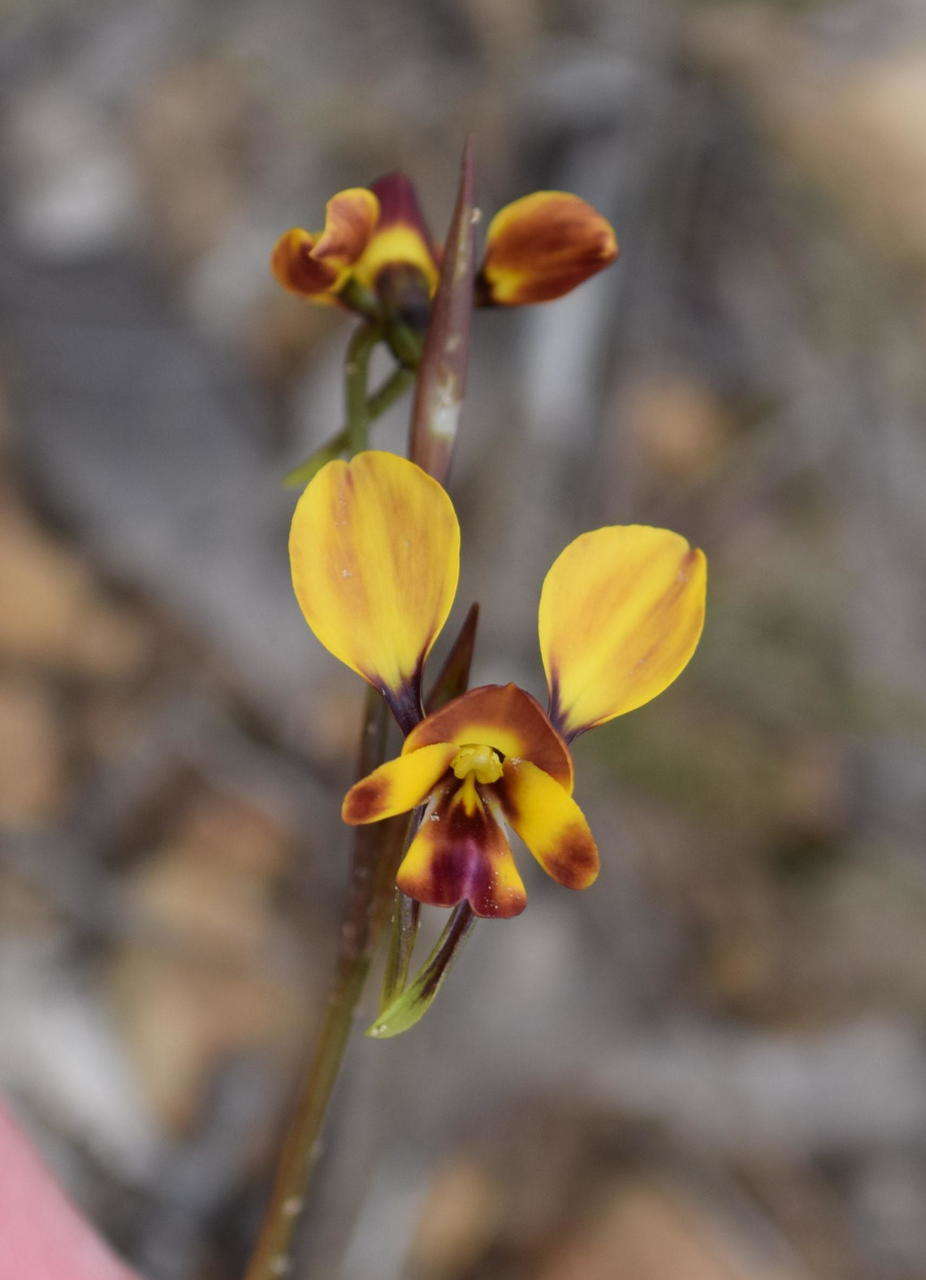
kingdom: Plantae
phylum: Tracheophyta
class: Liliopsida
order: Asparagales
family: Orchidaceae
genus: Diuris
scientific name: Diuris orientis
